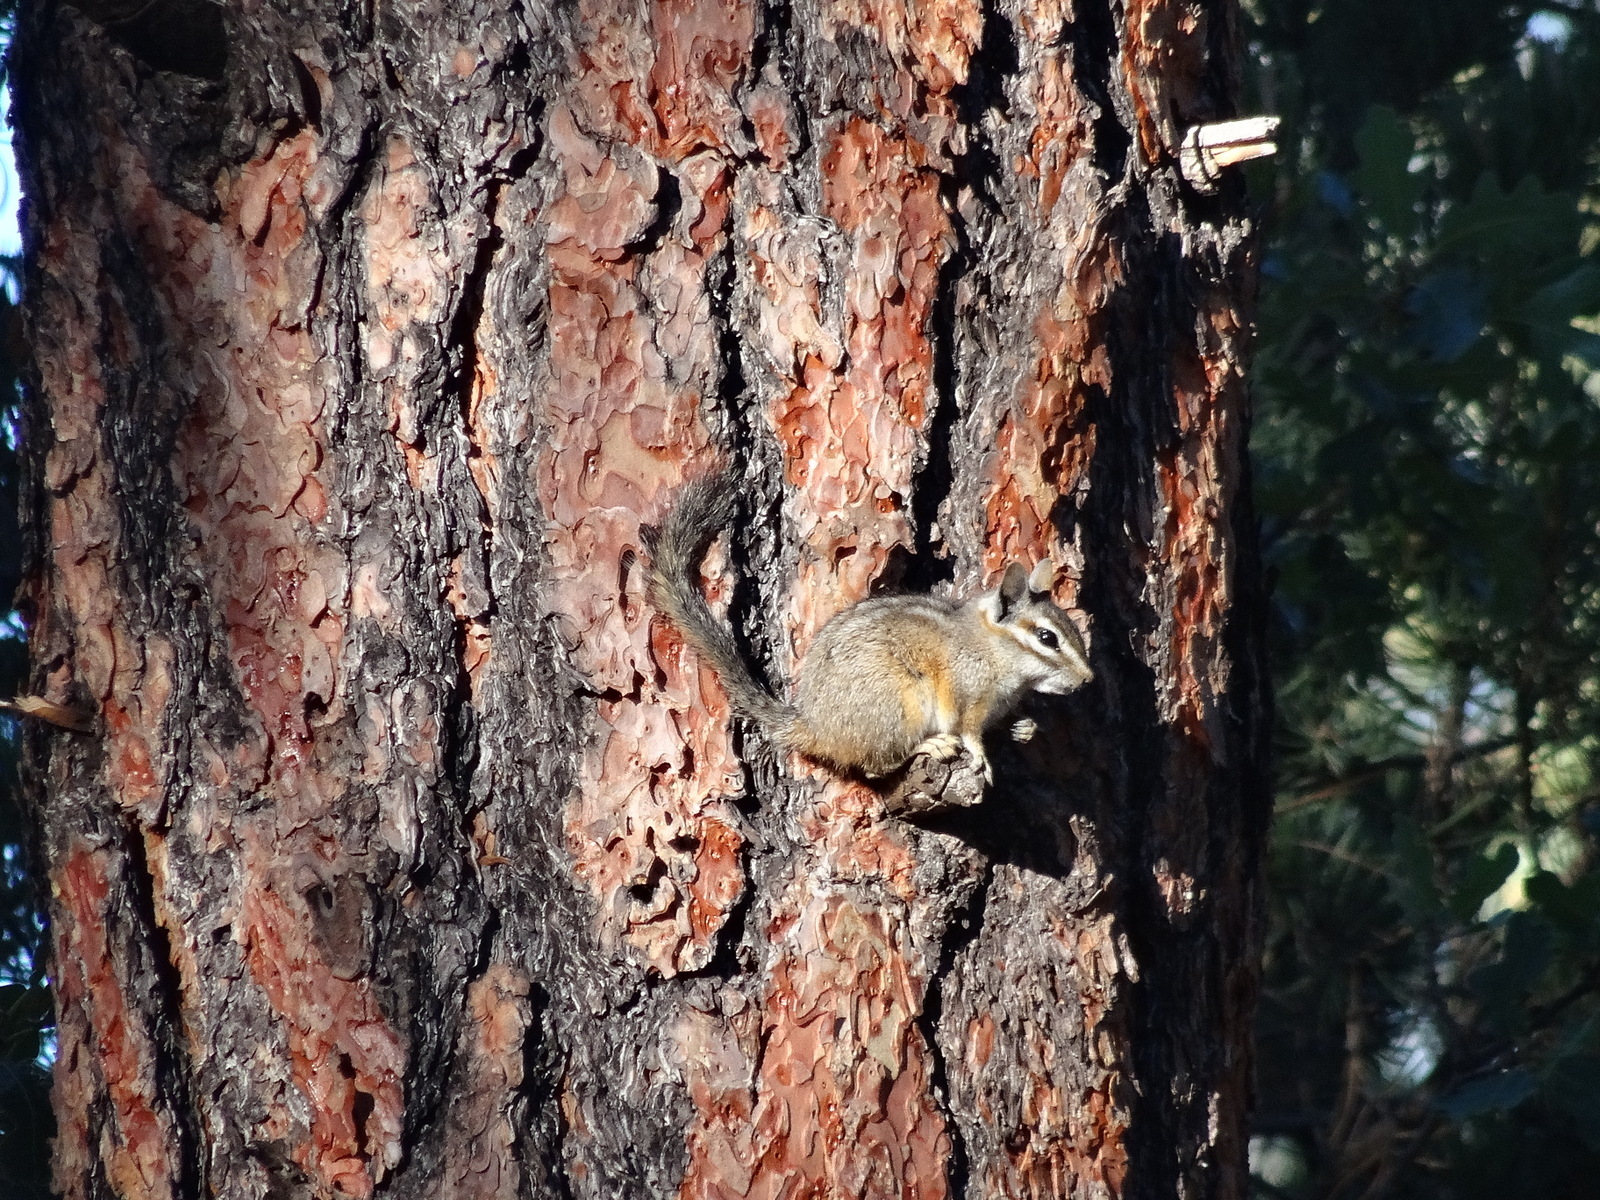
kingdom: Animalia
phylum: Chordata
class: Mammalia
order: Rodentia
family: Sciuridae
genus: Tamias
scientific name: Tamias dorsalis
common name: Cliff chipmunk
